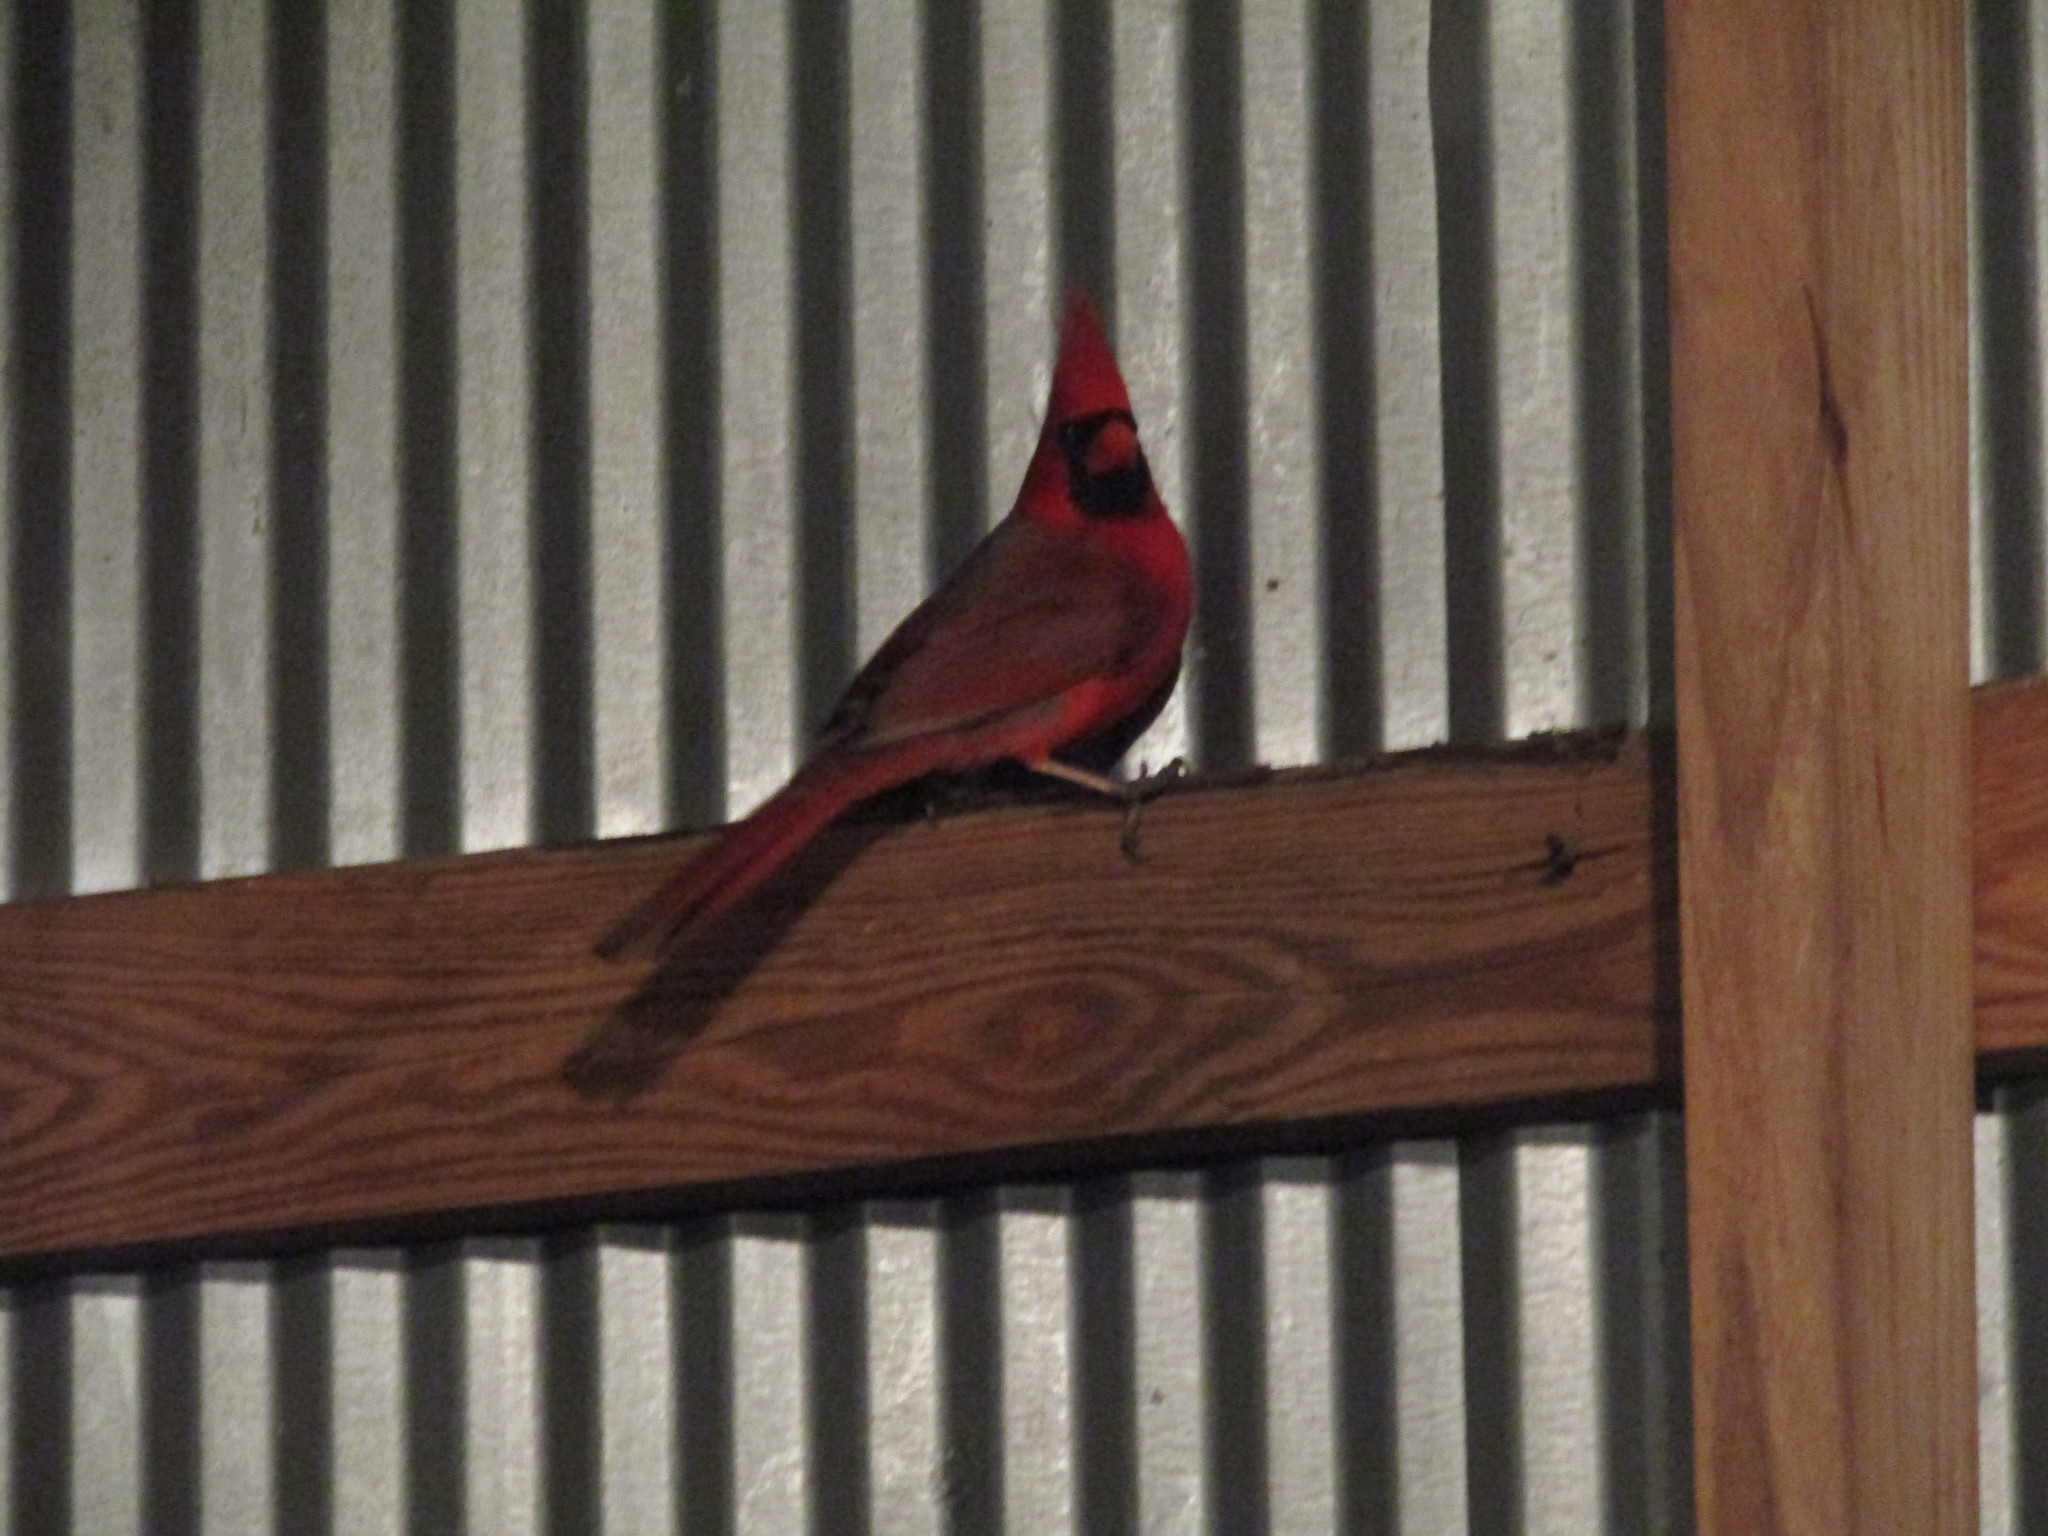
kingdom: Animalia
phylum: Chordata
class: Aves
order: Passeriformes
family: Cardinalidae
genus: Cardinalis
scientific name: Cardinalis cardinalis
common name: Northern cardinal
